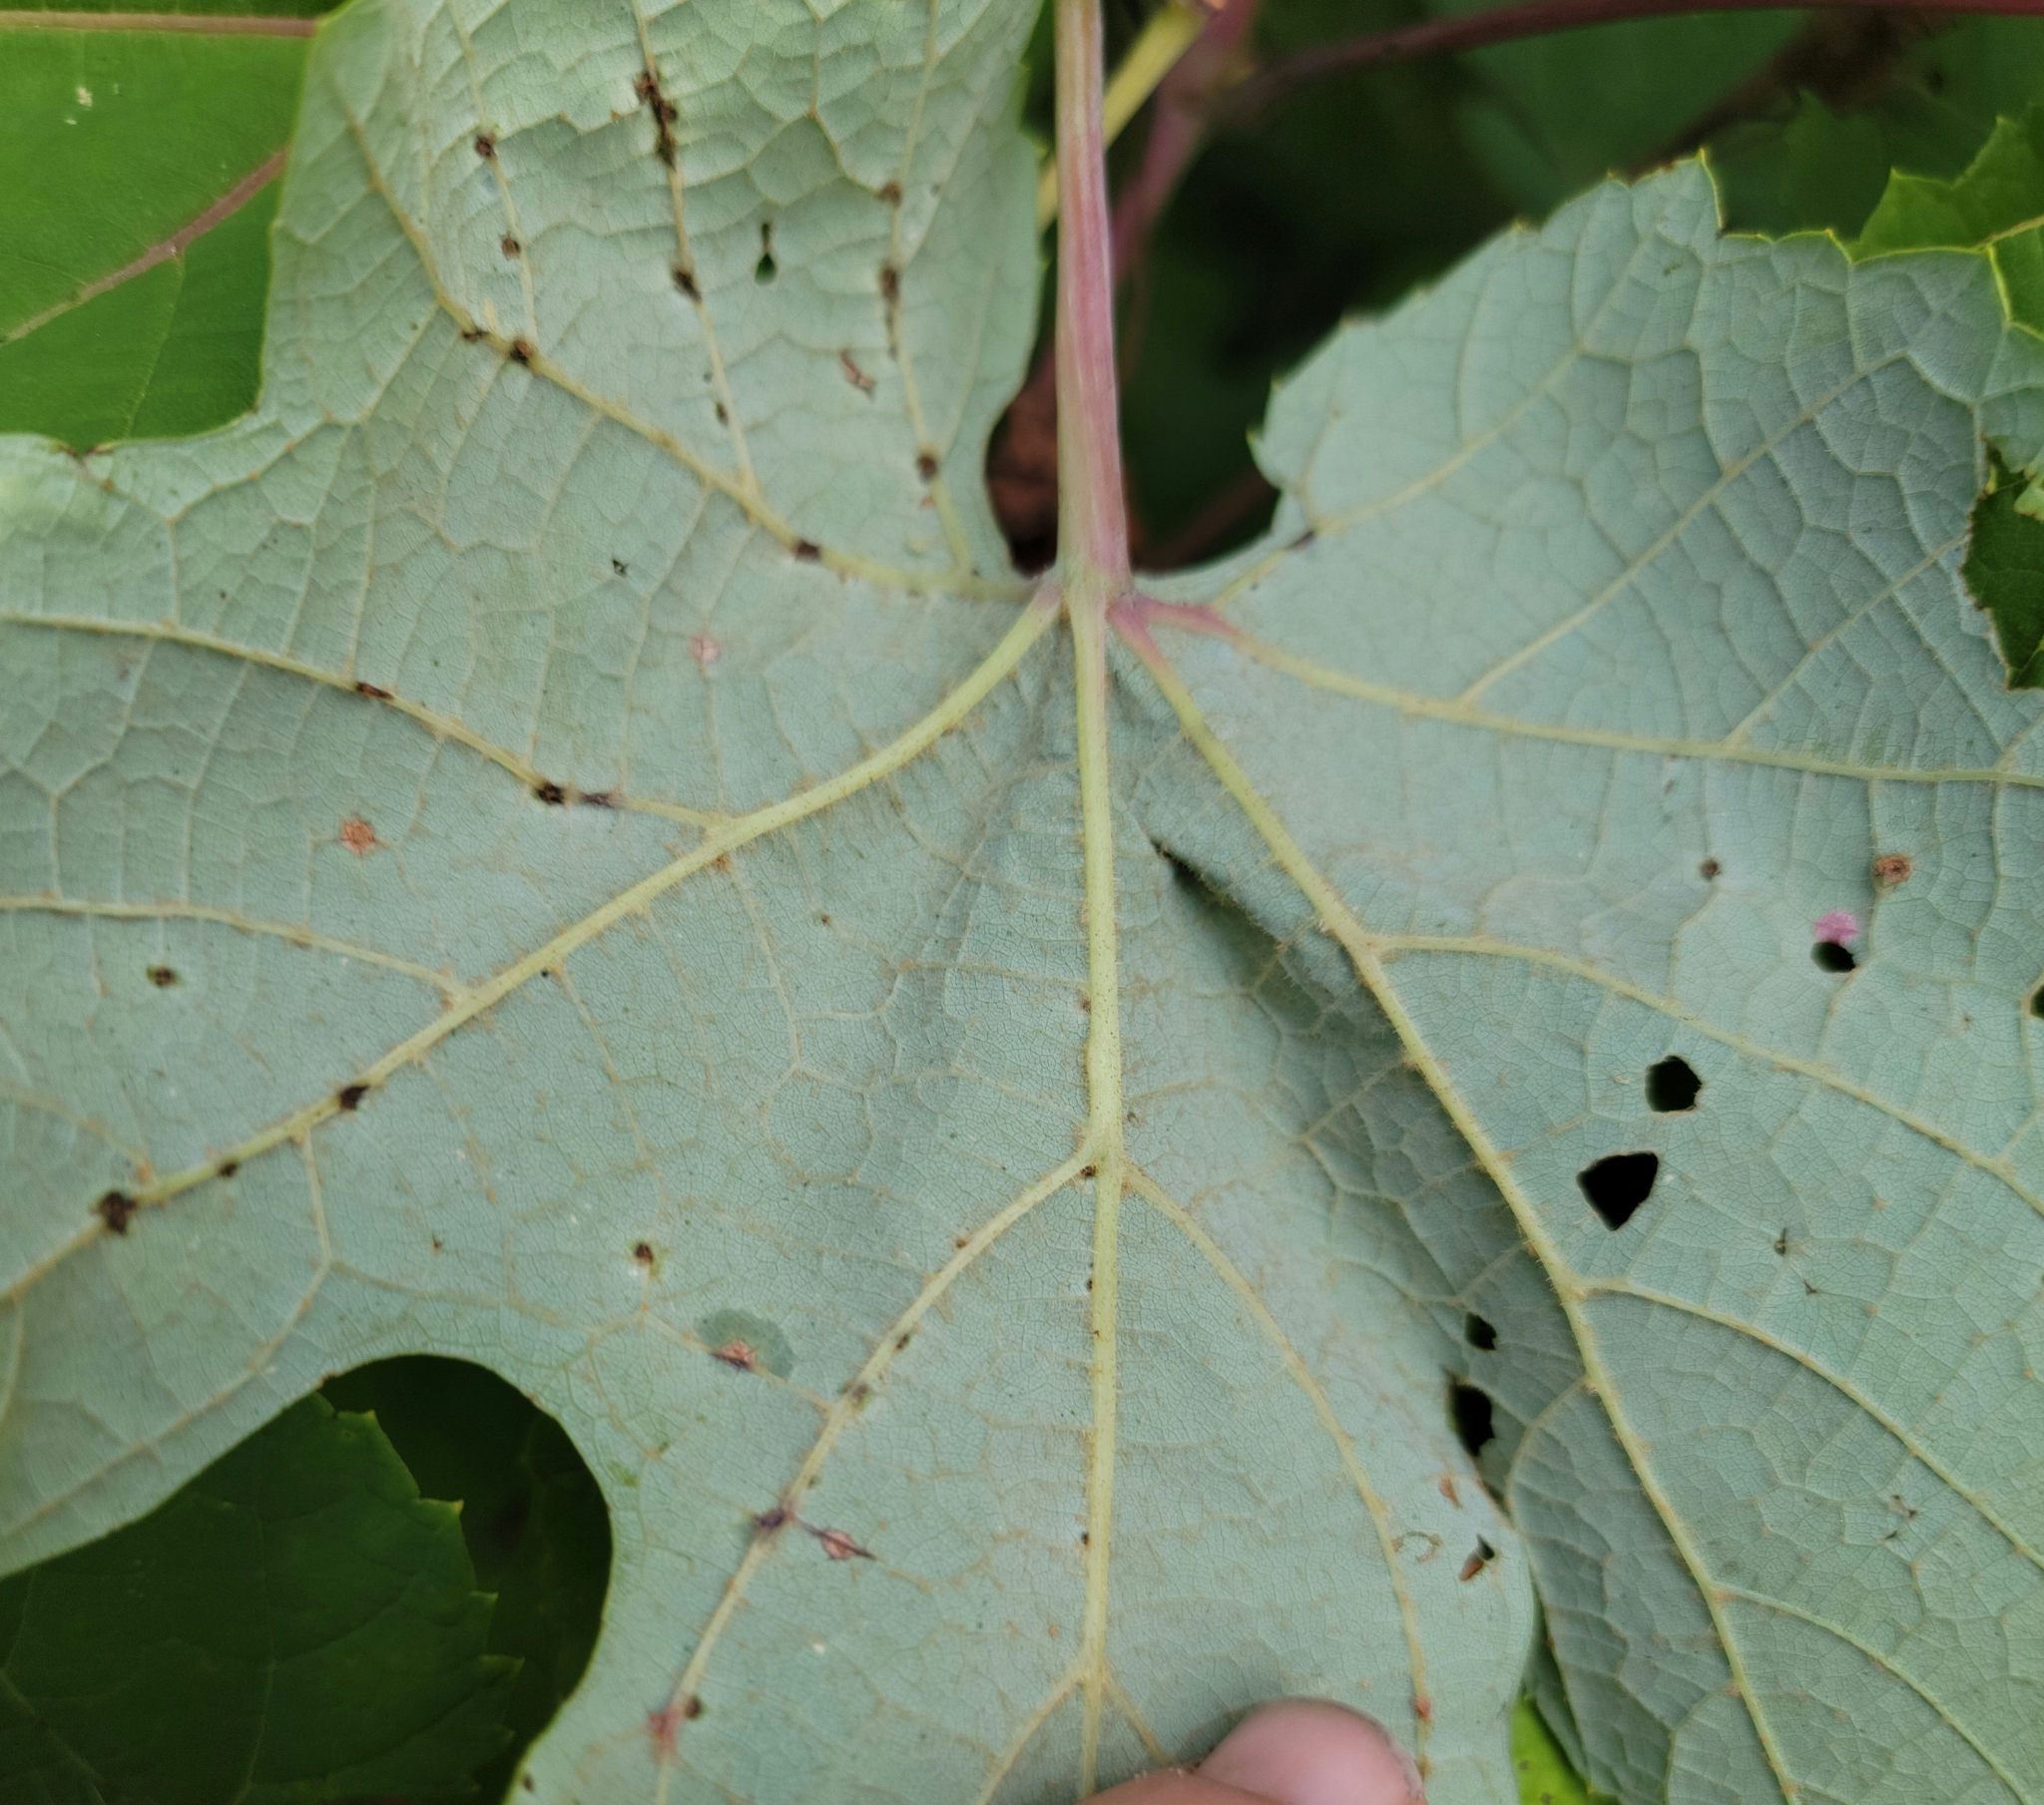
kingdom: Plantae
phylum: Tracheophyta
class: Magnoliopsida
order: Vitales
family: Vitaceae
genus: Vitis
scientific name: Vitis aestivalis
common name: Pigeon grape
